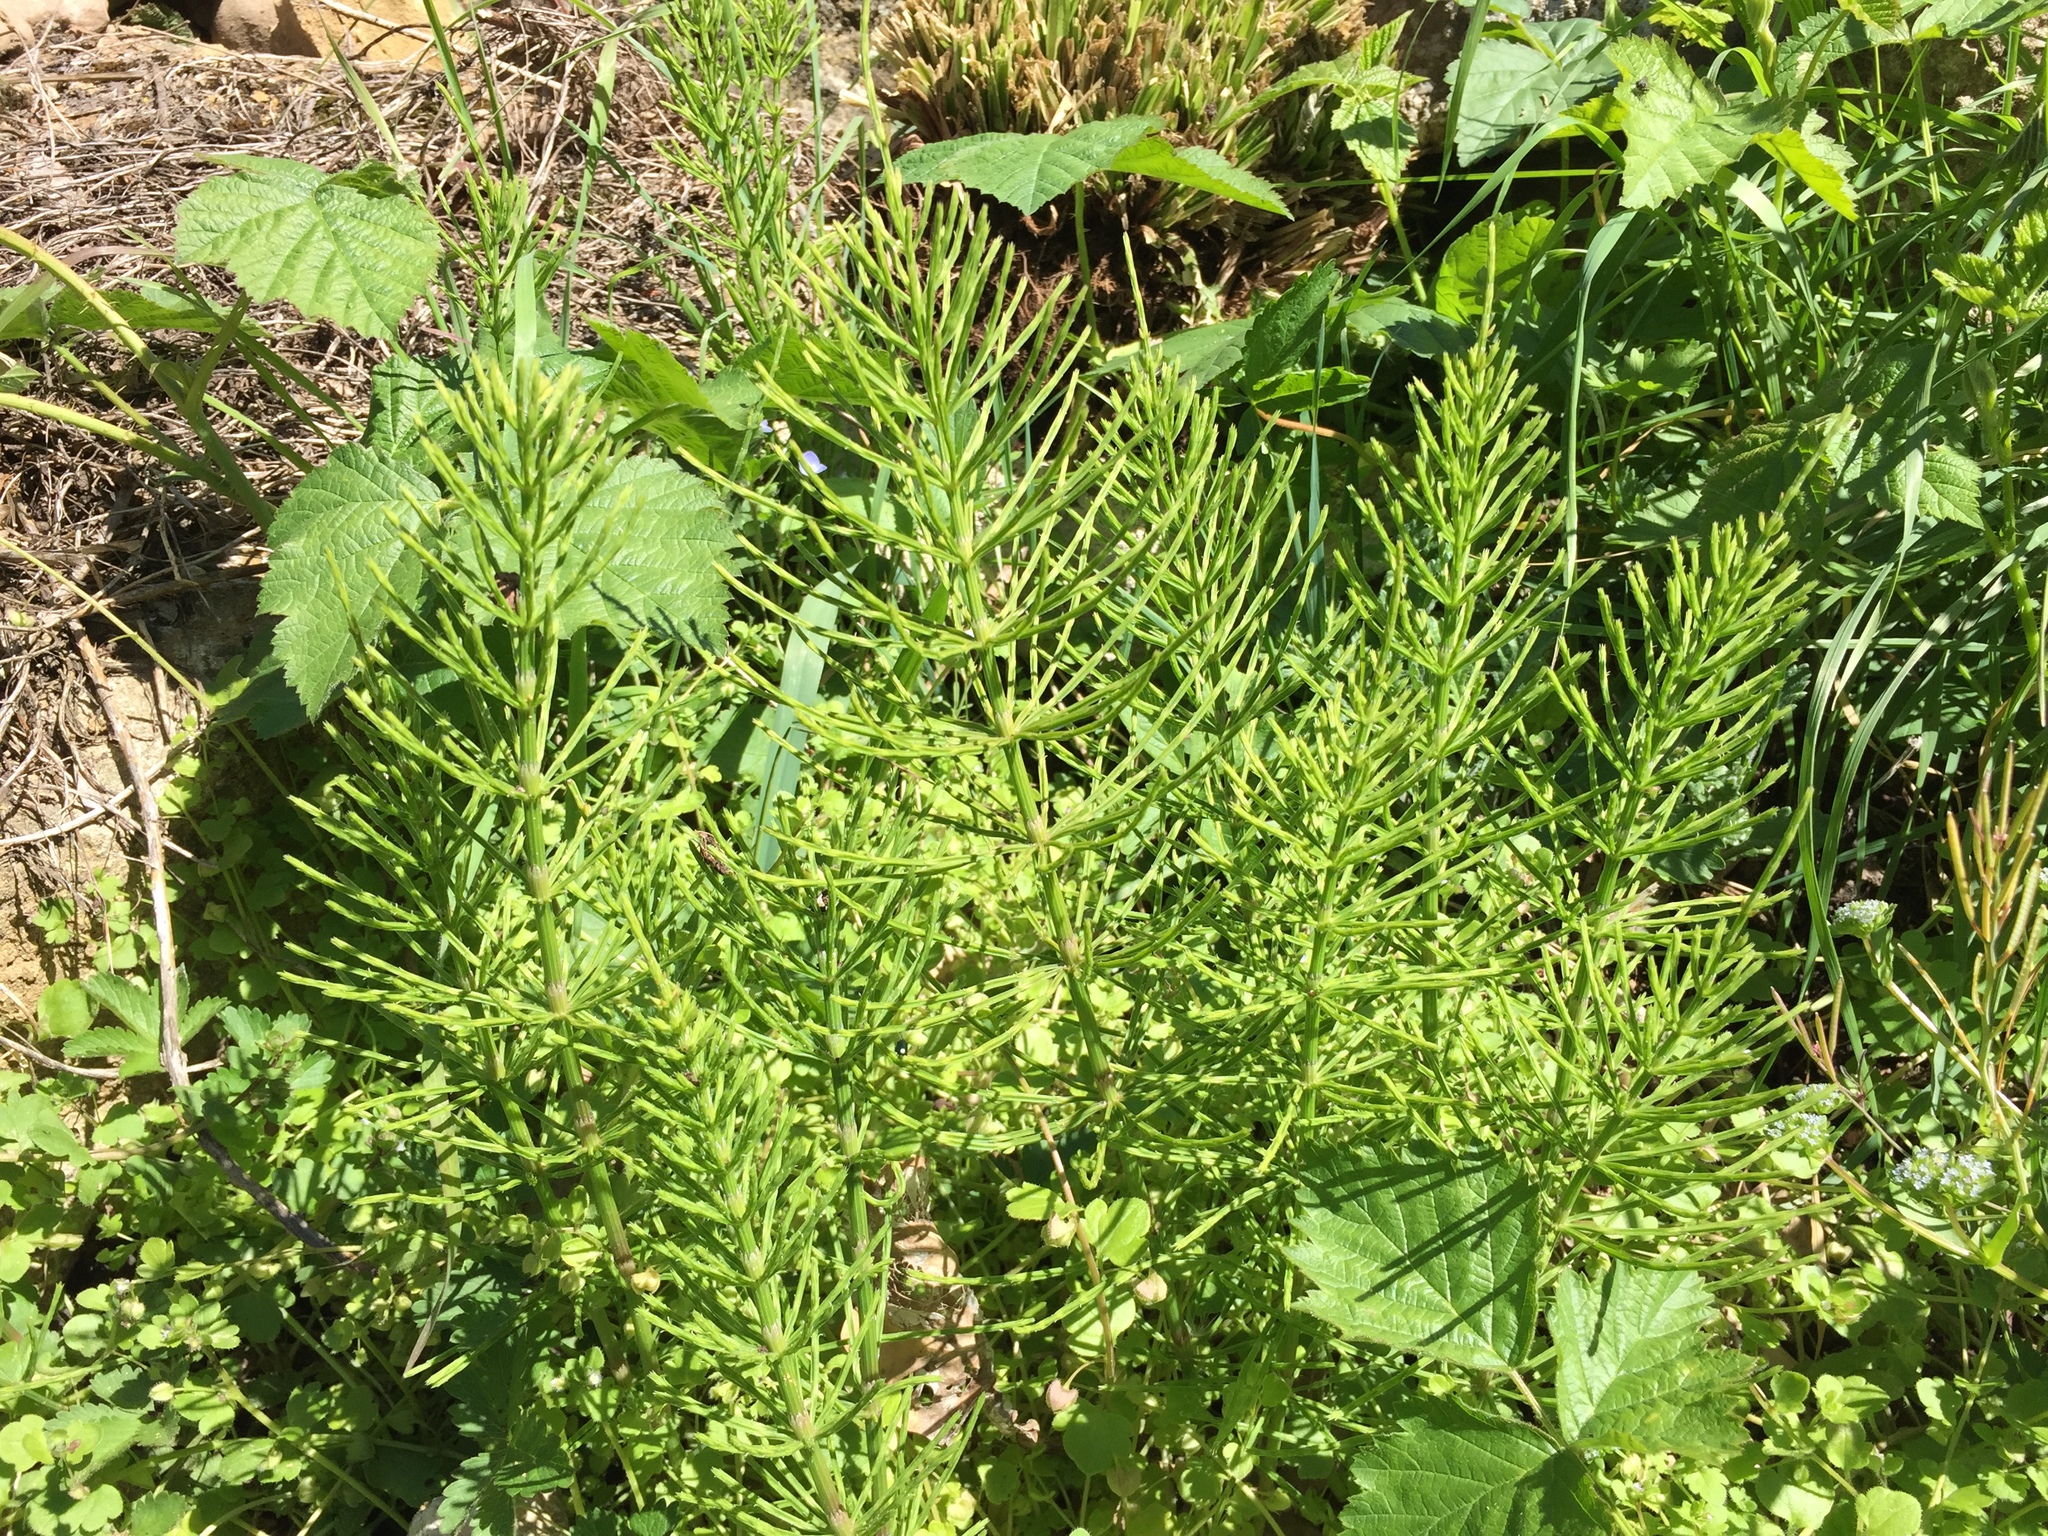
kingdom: Plantae
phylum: Tracheophyta
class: Polypodiopsida
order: Equisetales
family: Equisetaceae
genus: Equisetum
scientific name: Equisetum arvense
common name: Field horsetail
